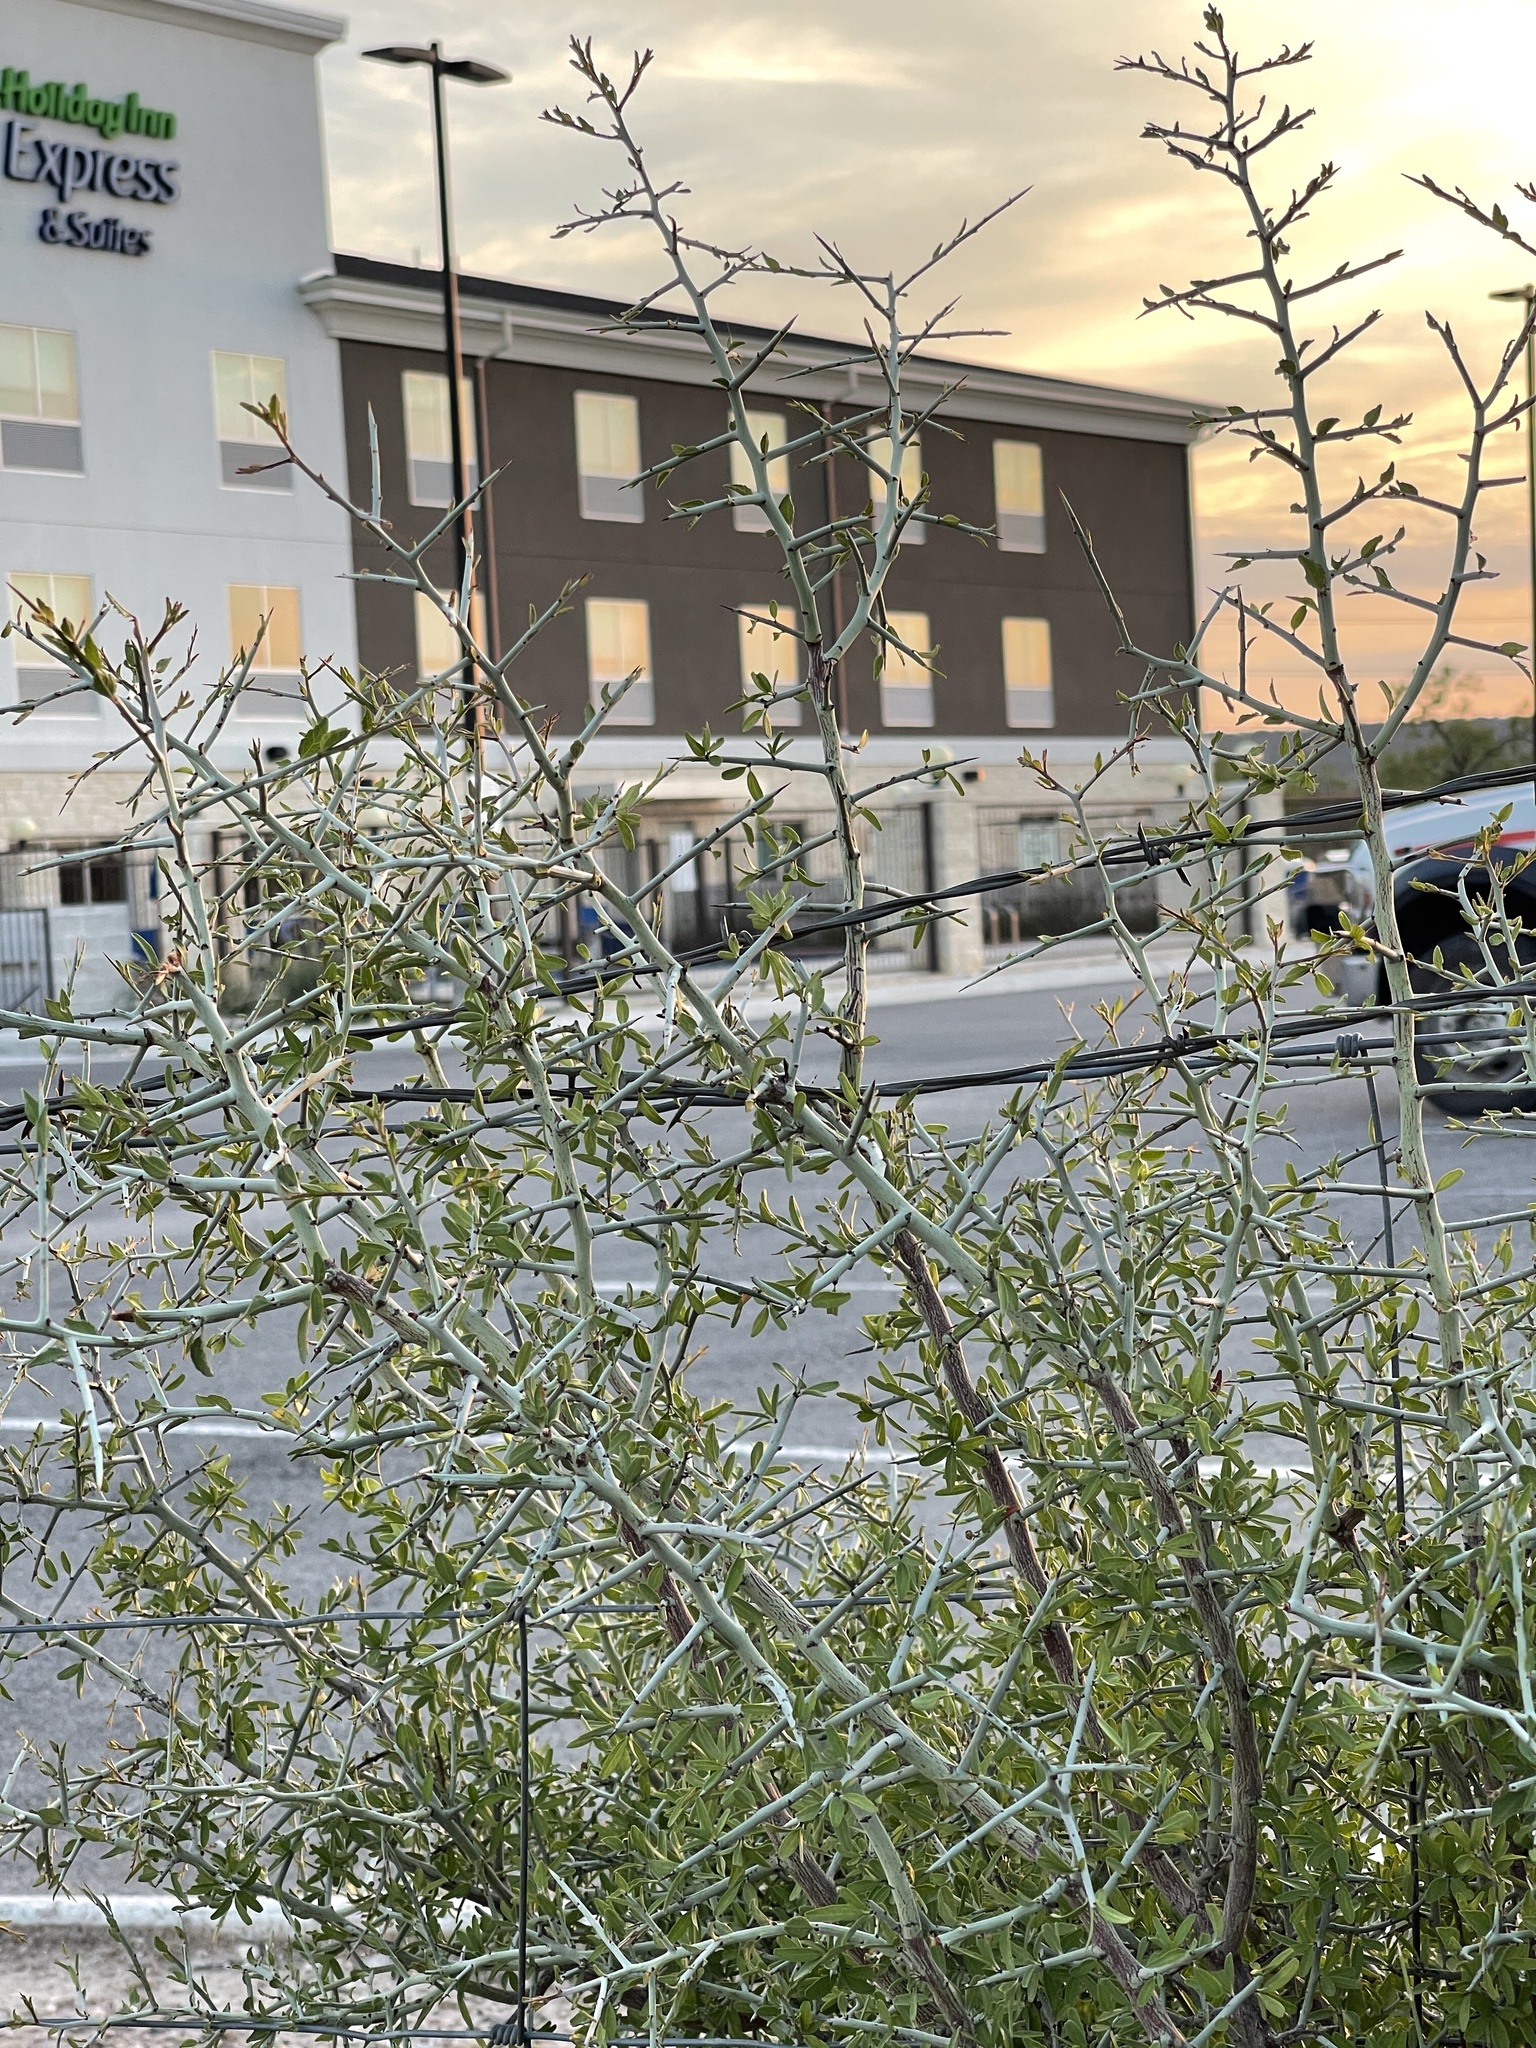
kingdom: Plantae
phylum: Tracheophyta
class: Magnoliopsida
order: Rosales
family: Rhamnaceae
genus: Sarcomphalus
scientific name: Sarcomphalus obtusifolius
